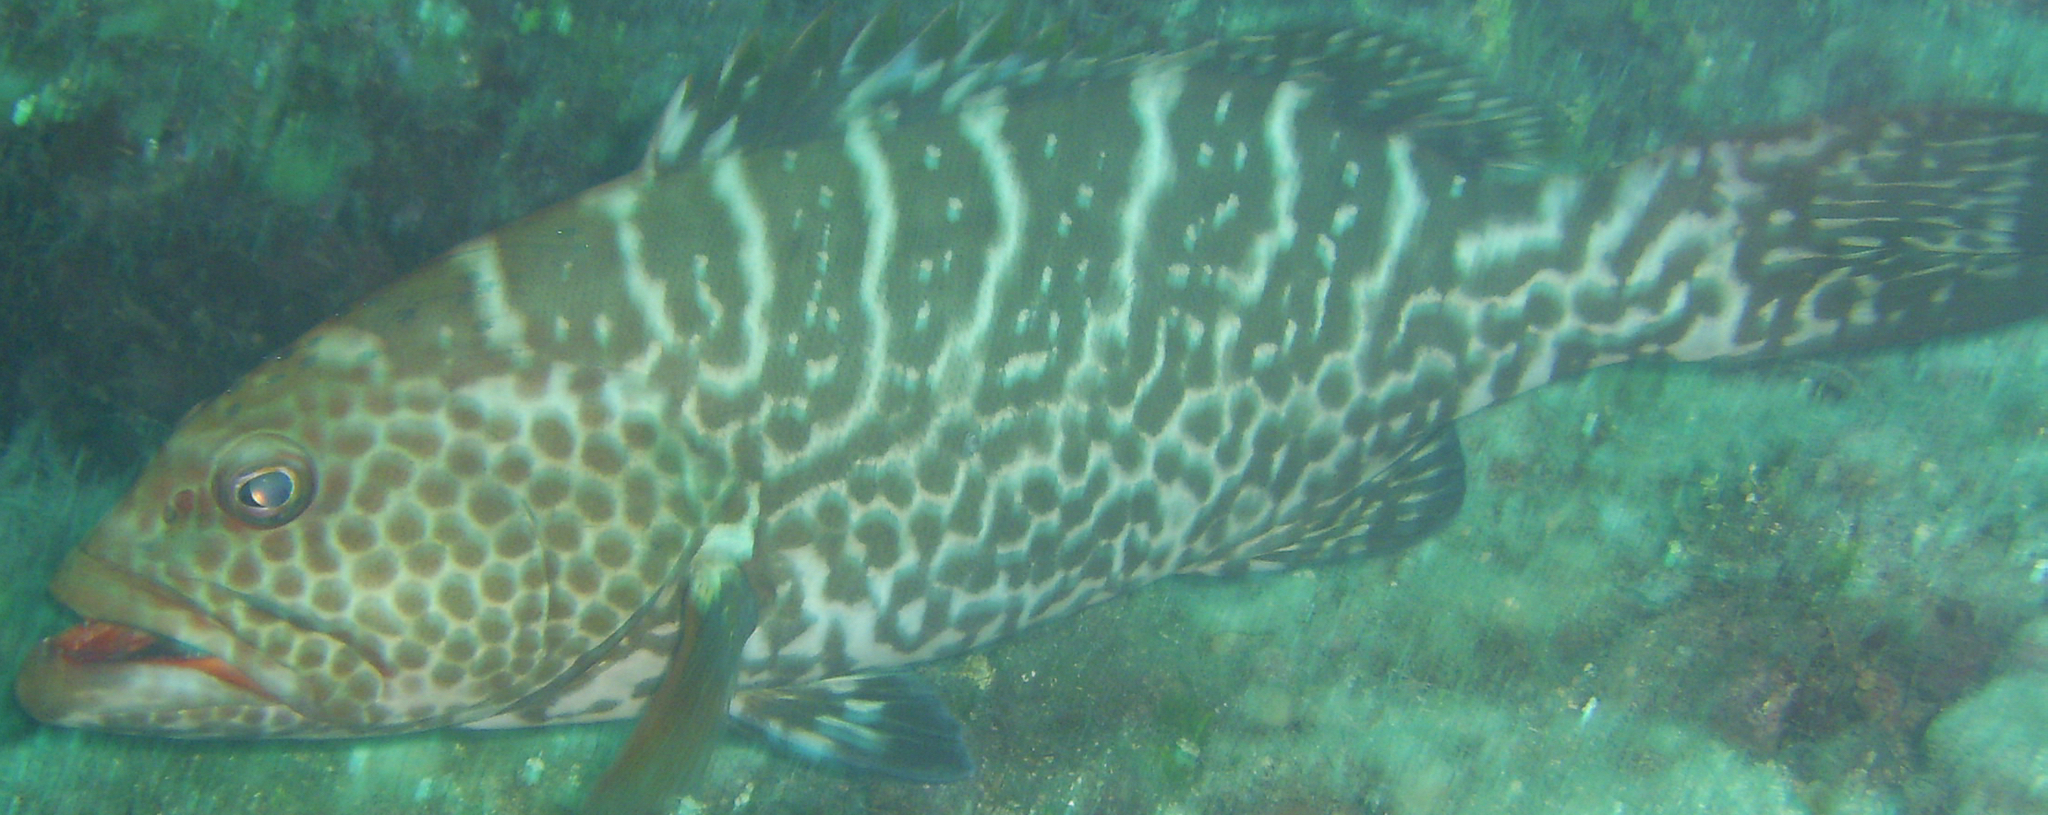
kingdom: Animalia
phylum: Chordata
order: Perciformes
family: Serranidae
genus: Mycteroperca
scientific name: Mycteroperca tigris
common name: Tiger grouper
